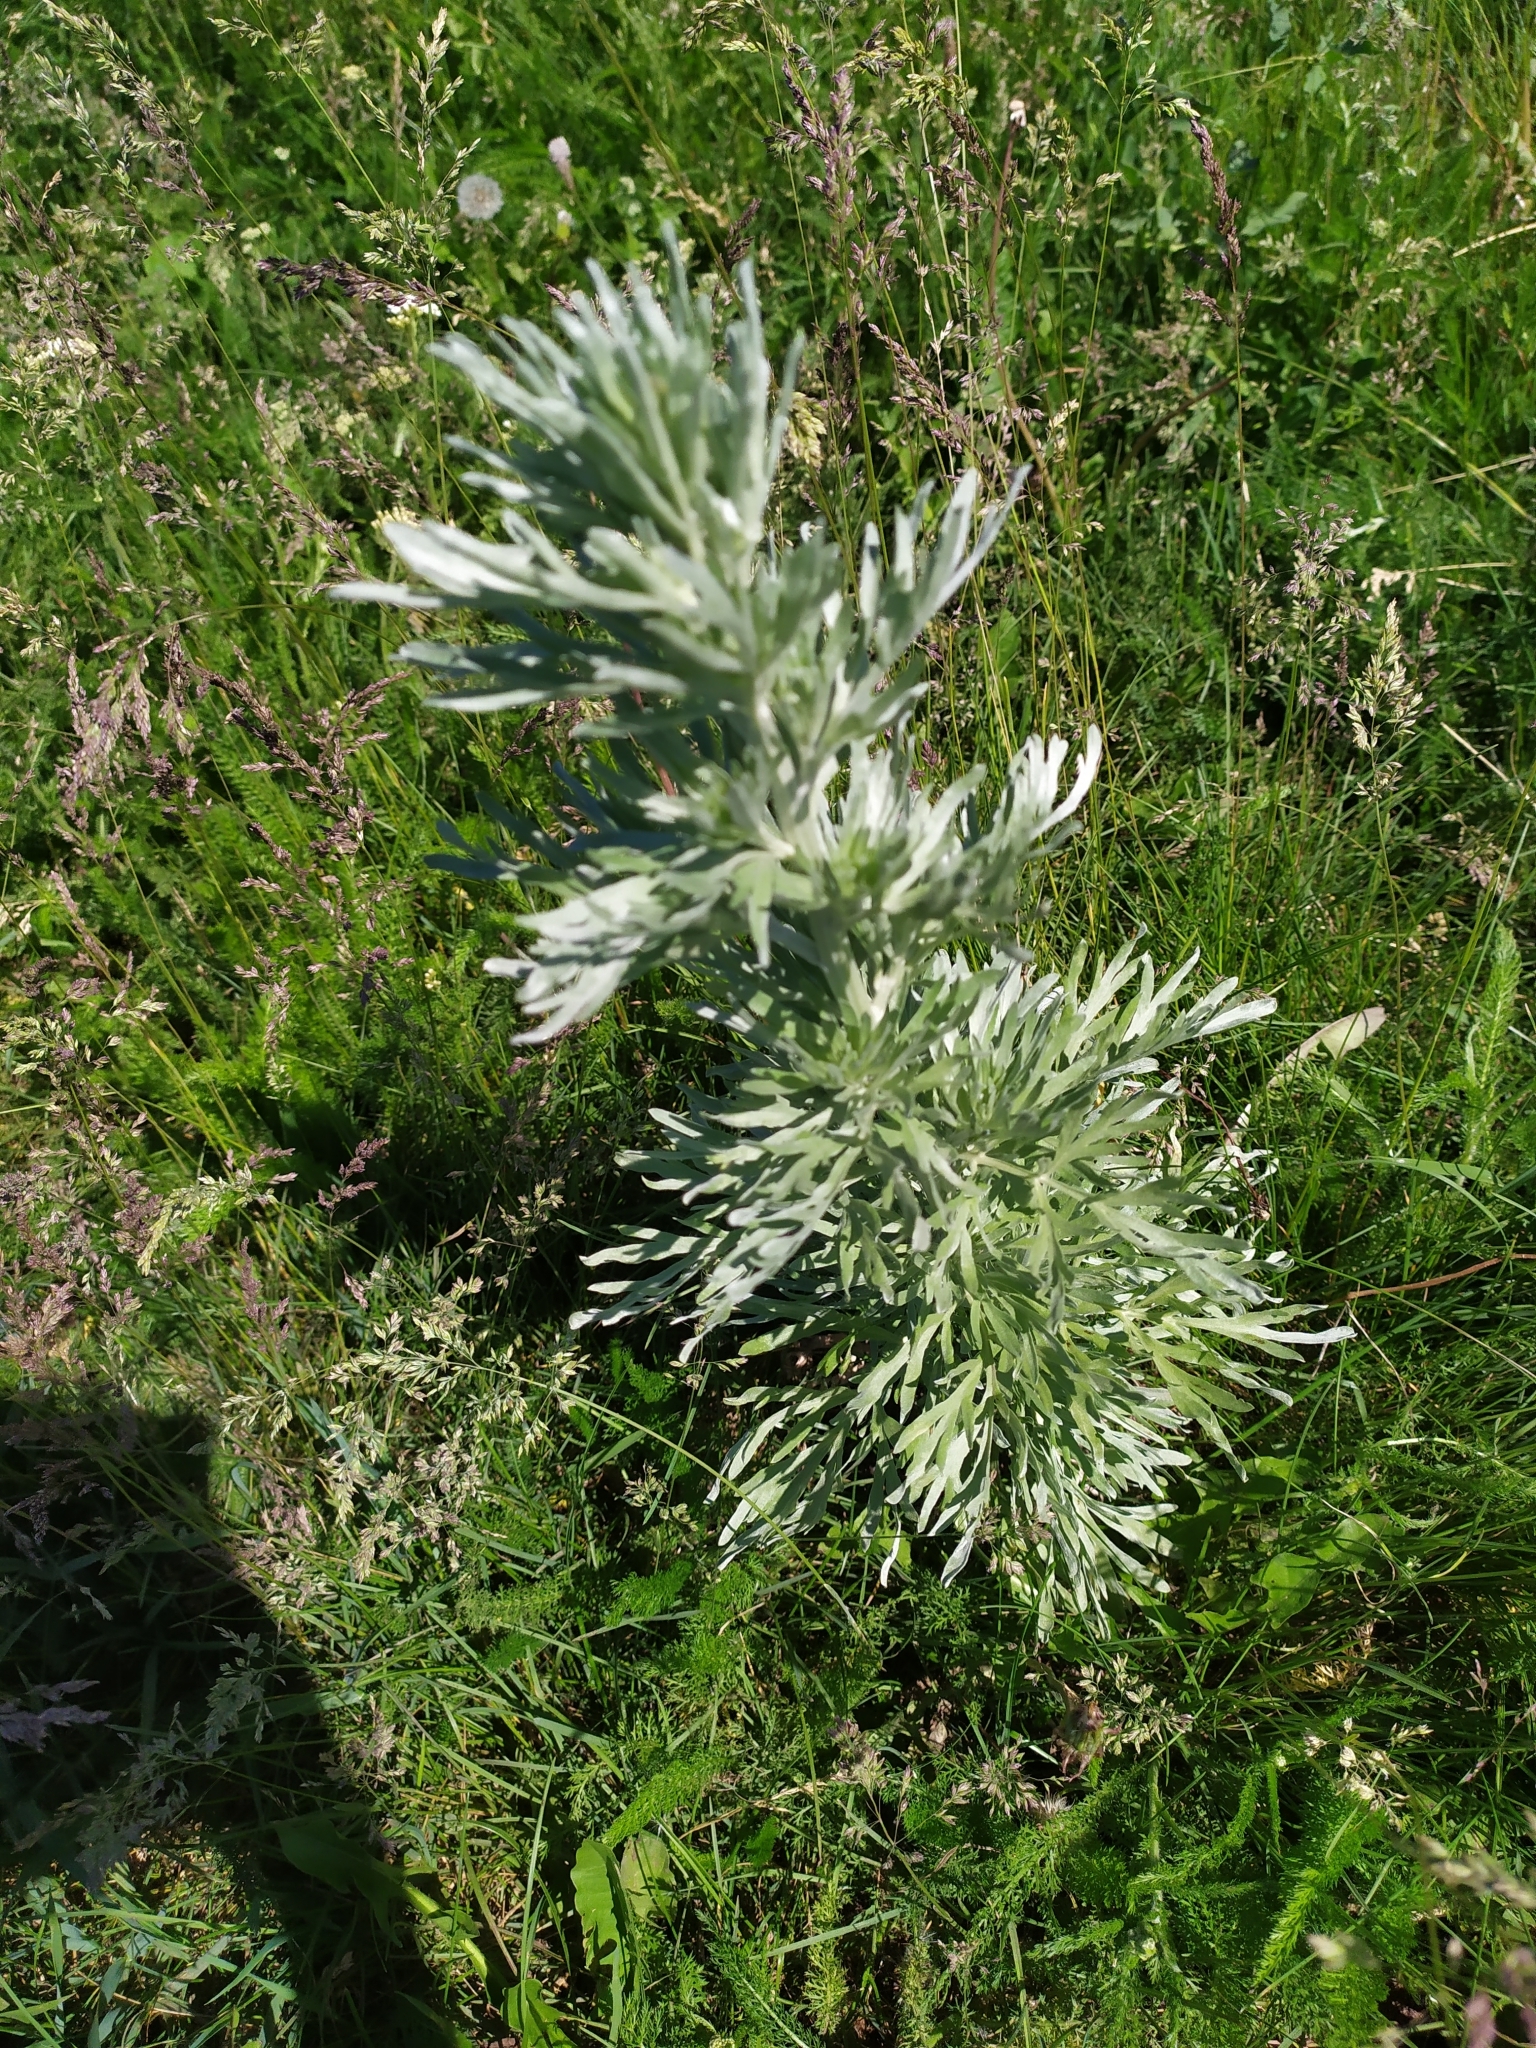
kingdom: Plantae
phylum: Tracheophyta
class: Magnoliopsida
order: Asterales
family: Asteraceae
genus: Artemisia
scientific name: Artemisia absinthium
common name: Wormwood
